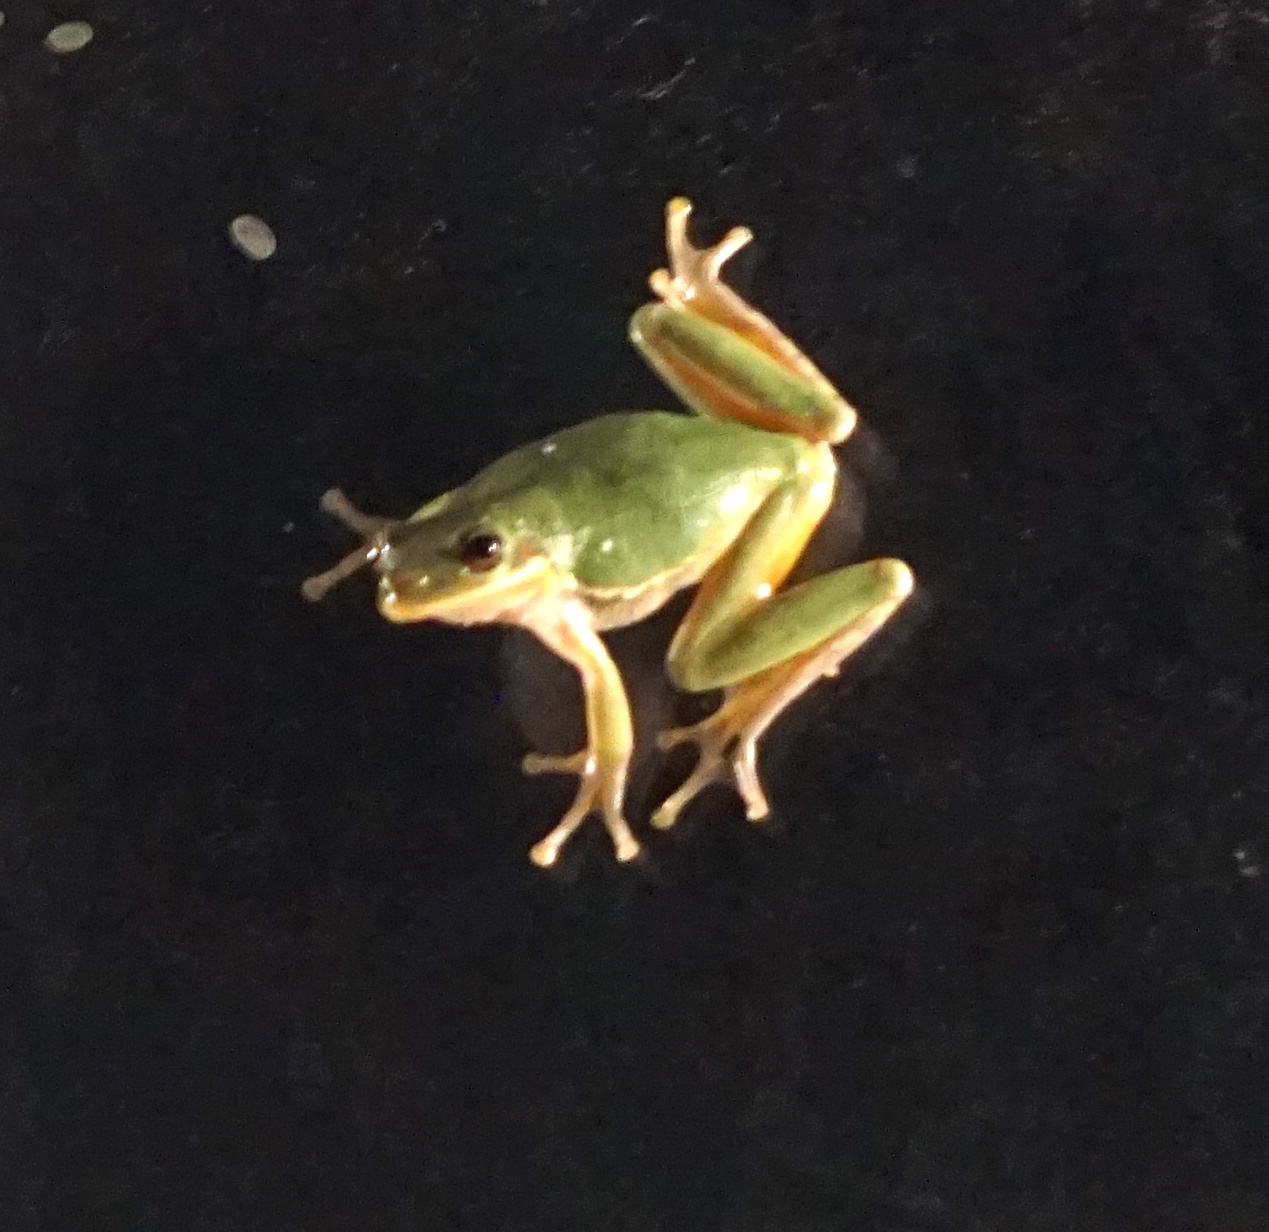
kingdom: Animalia
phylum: Chordata
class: Amphibia
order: Anura
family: Hylidae
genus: Dryophytes
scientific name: Dryophytes squirellus
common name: Squirrel treefrog
